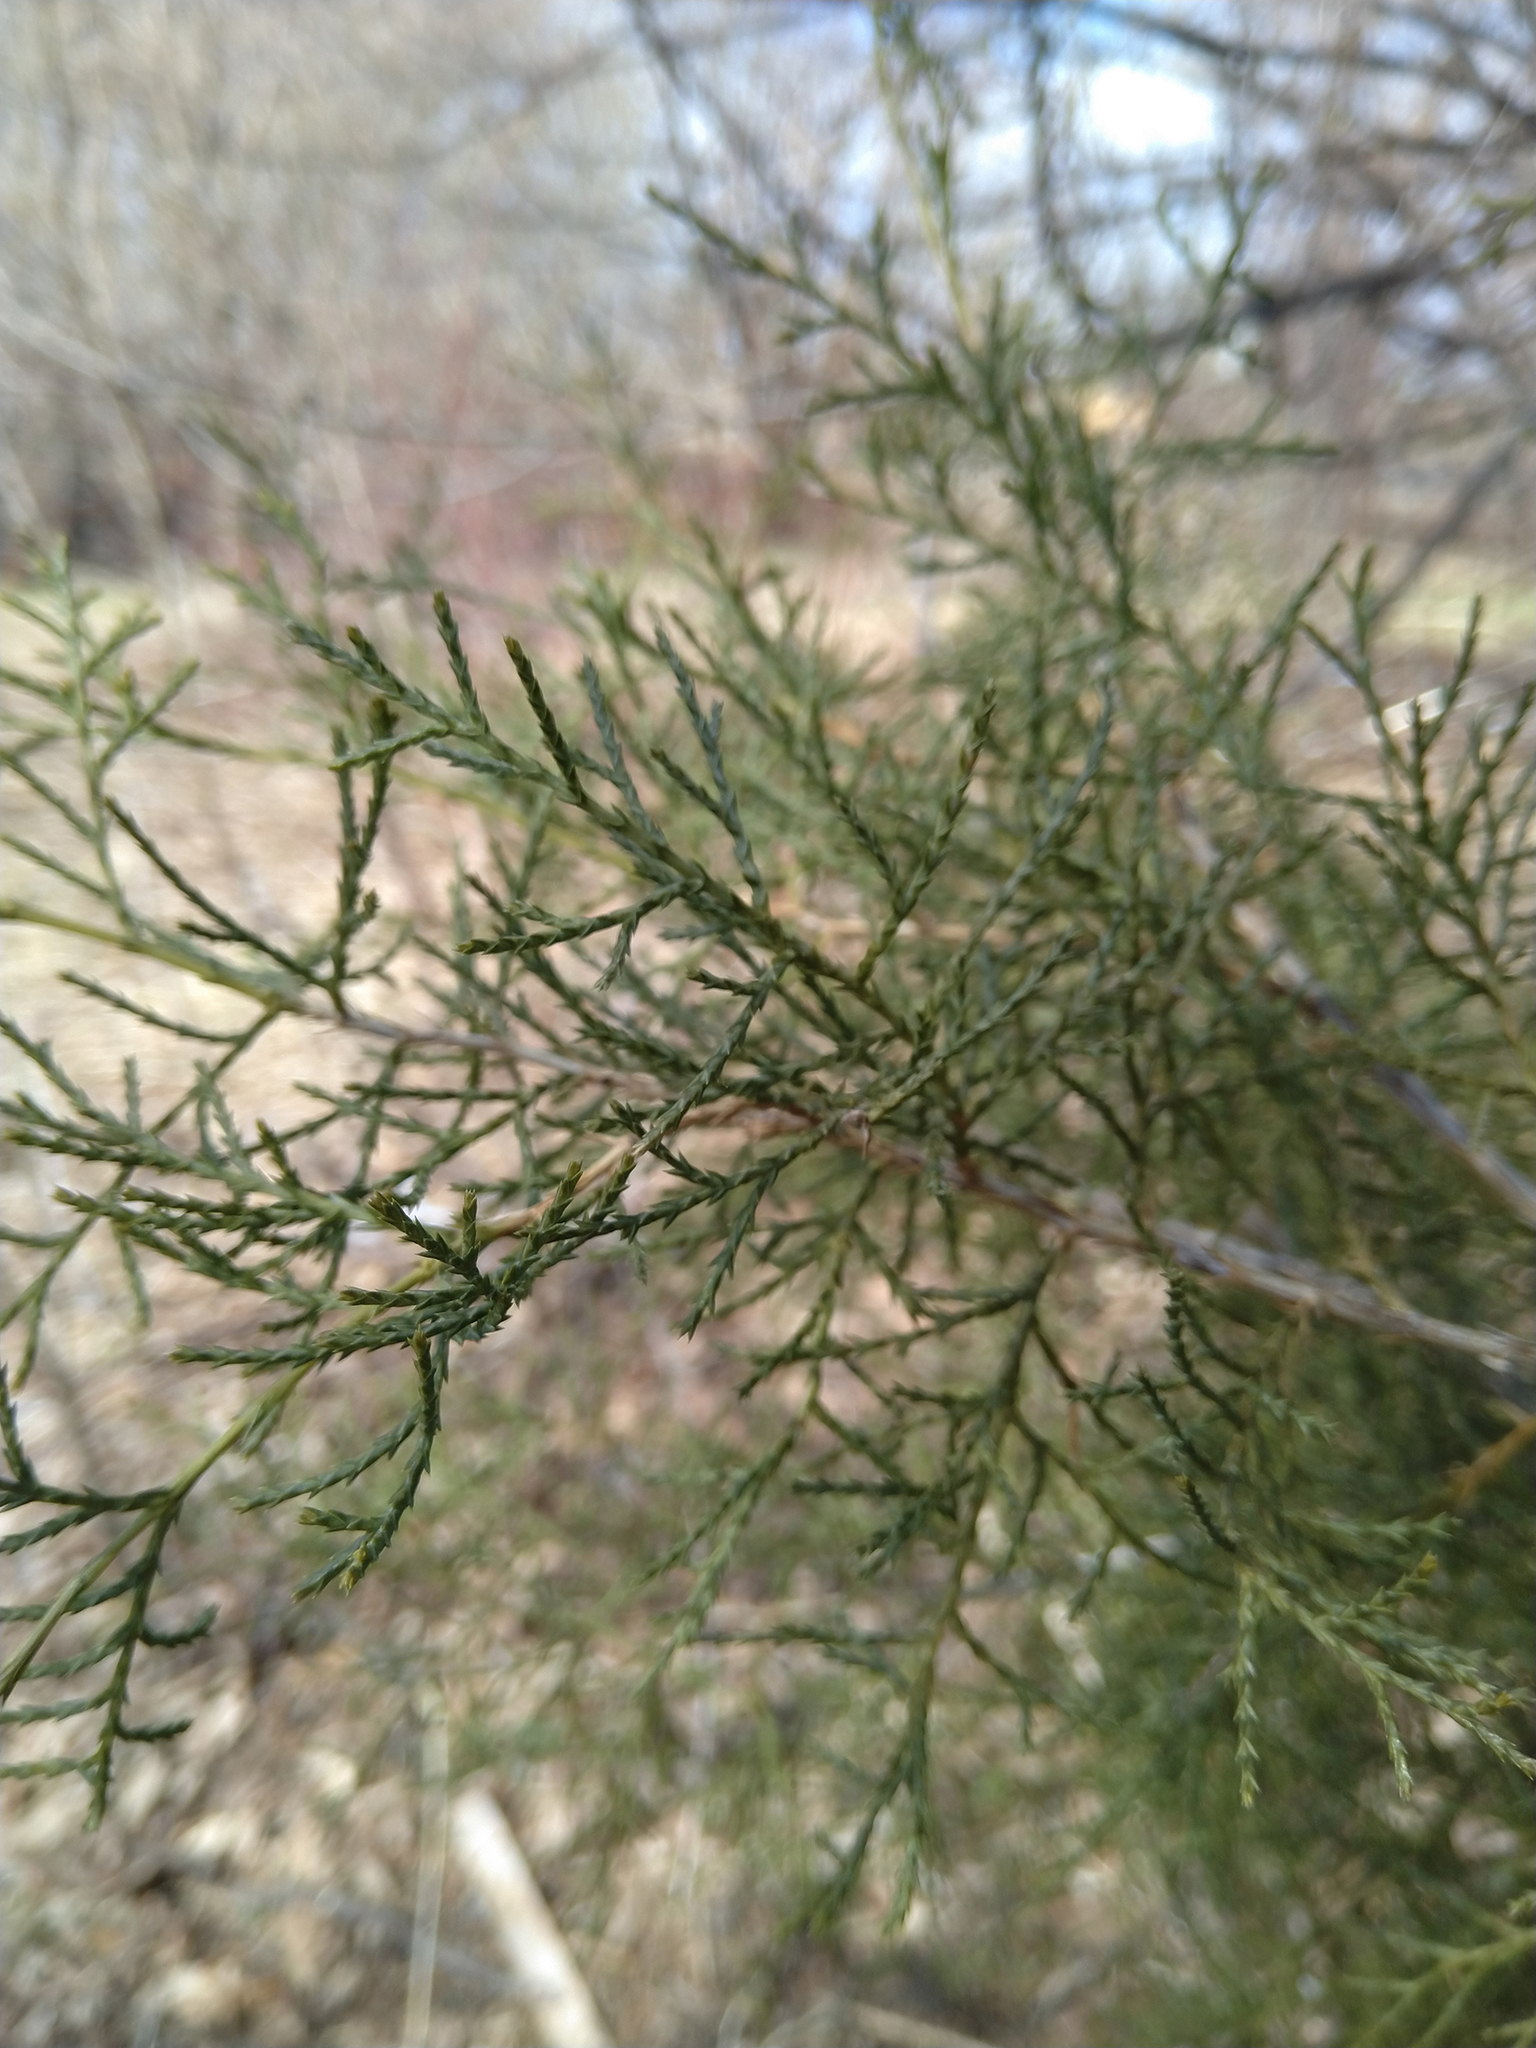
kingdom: Plantae
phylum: Tracheophyta
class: Pinopsida
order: Pinales
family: Cupressaceae
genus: Juniperus
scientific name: Juniperus virginiana
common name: Red juniper
